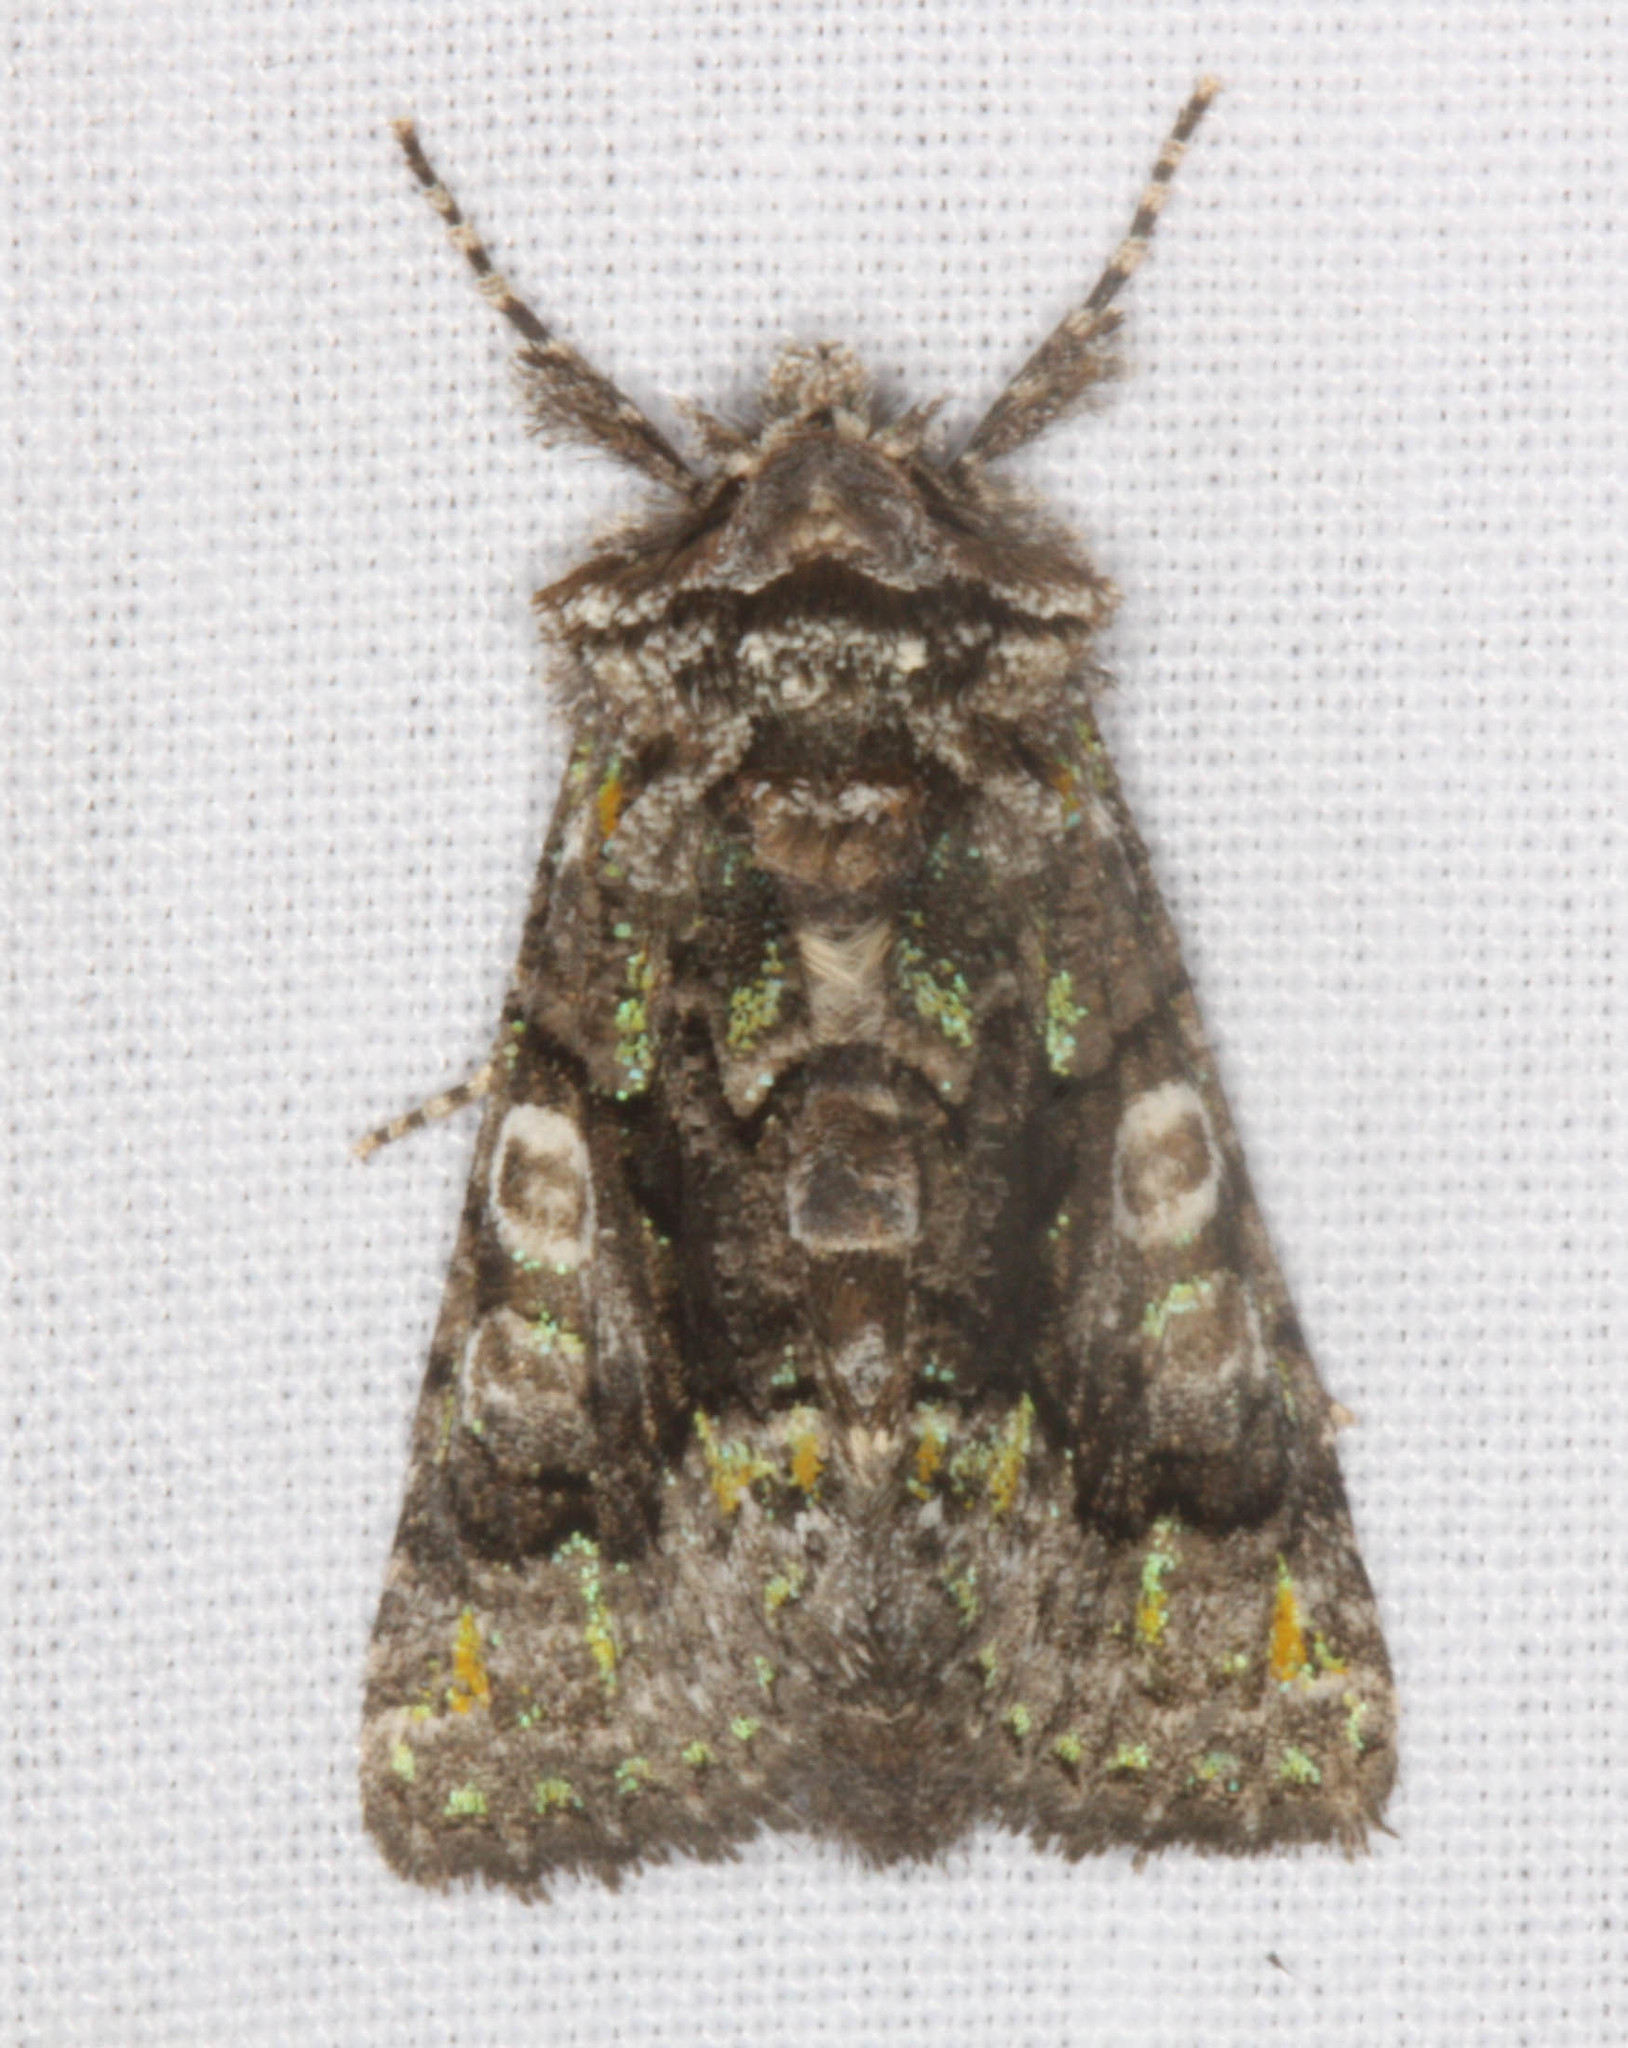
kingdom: Animalia
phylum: Arthropoda
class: Insecta
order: Lepidoptera
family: Noctuidae
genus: Behrensia
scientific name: Behrensia conchiformis
